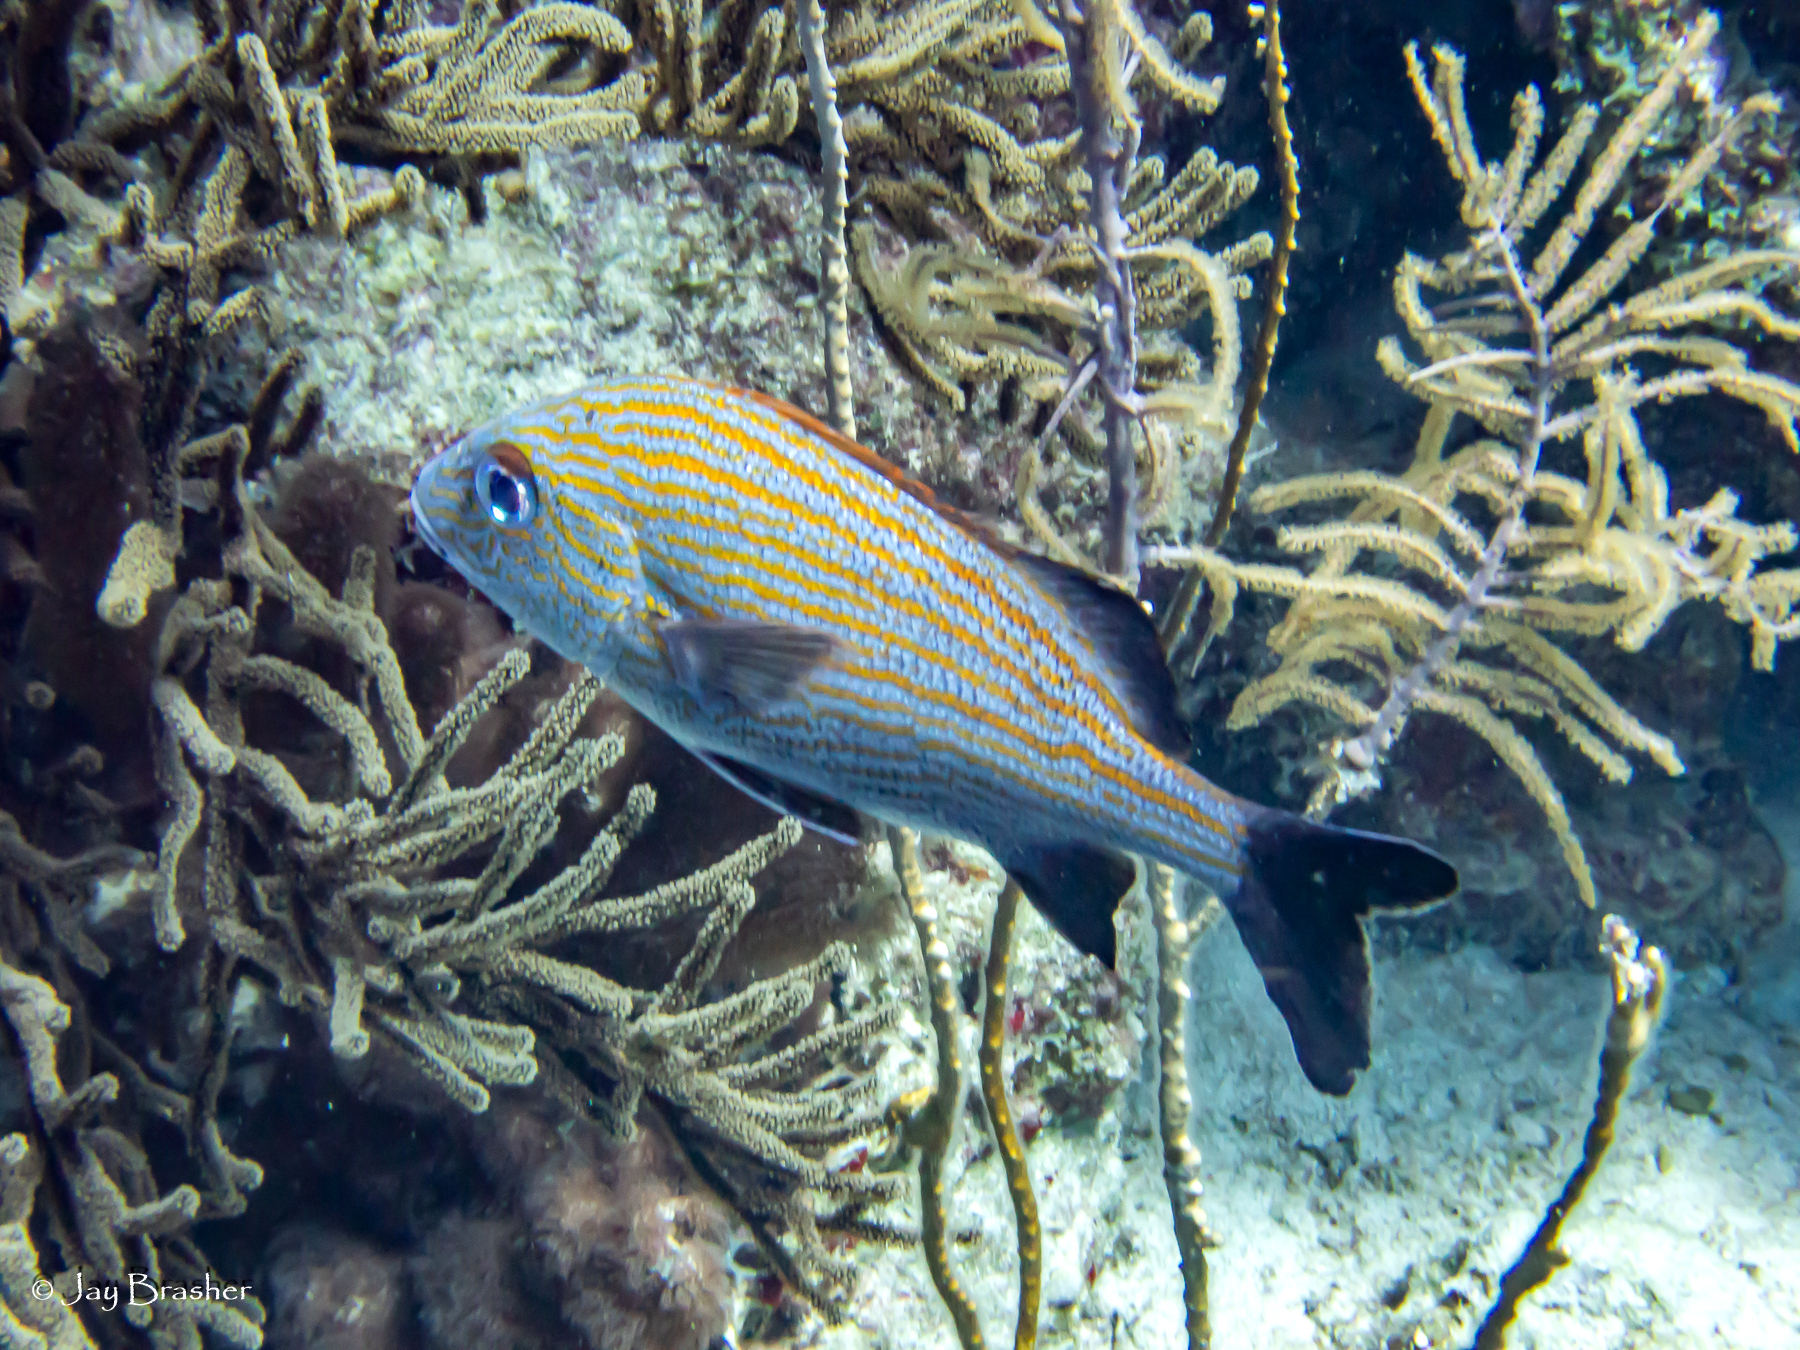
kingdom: Animalia
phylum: Chordata
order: Perciformes
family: Haemulidae
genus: Haemulon
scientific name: Haemulon carbonarium
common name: Caesar grunt
